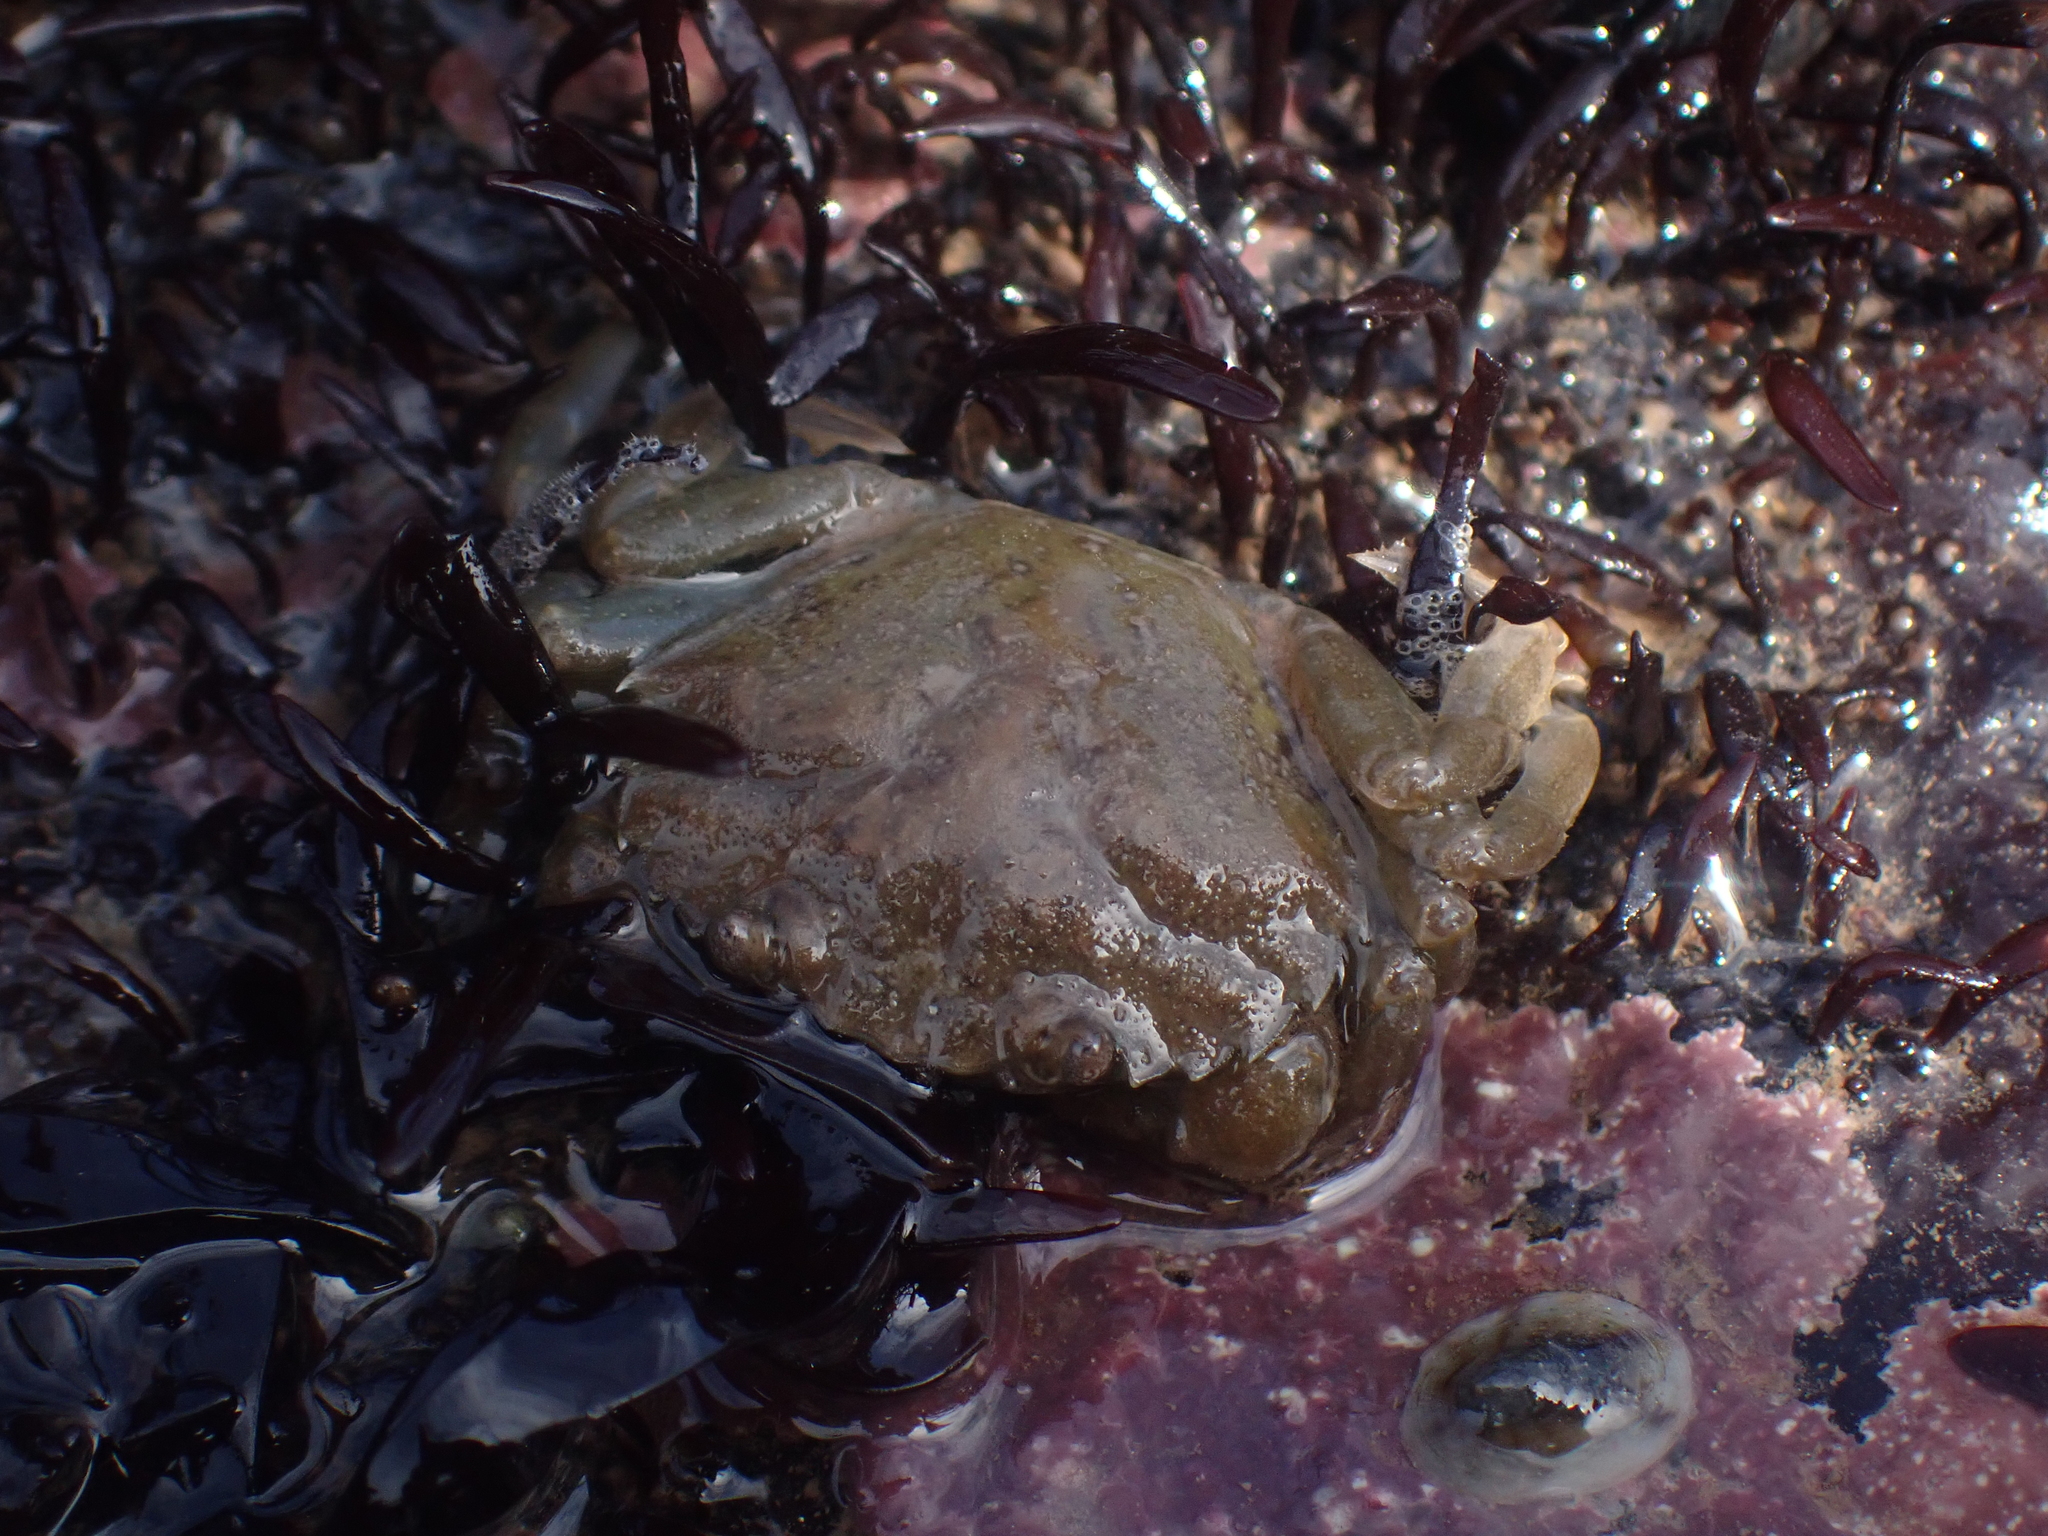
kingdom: Animalia
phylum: Arthropoda
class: Malacostraca
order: Decapoda
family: Carcinidae
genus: Carcinus
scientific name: Carcinus maenas
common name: European green crab
